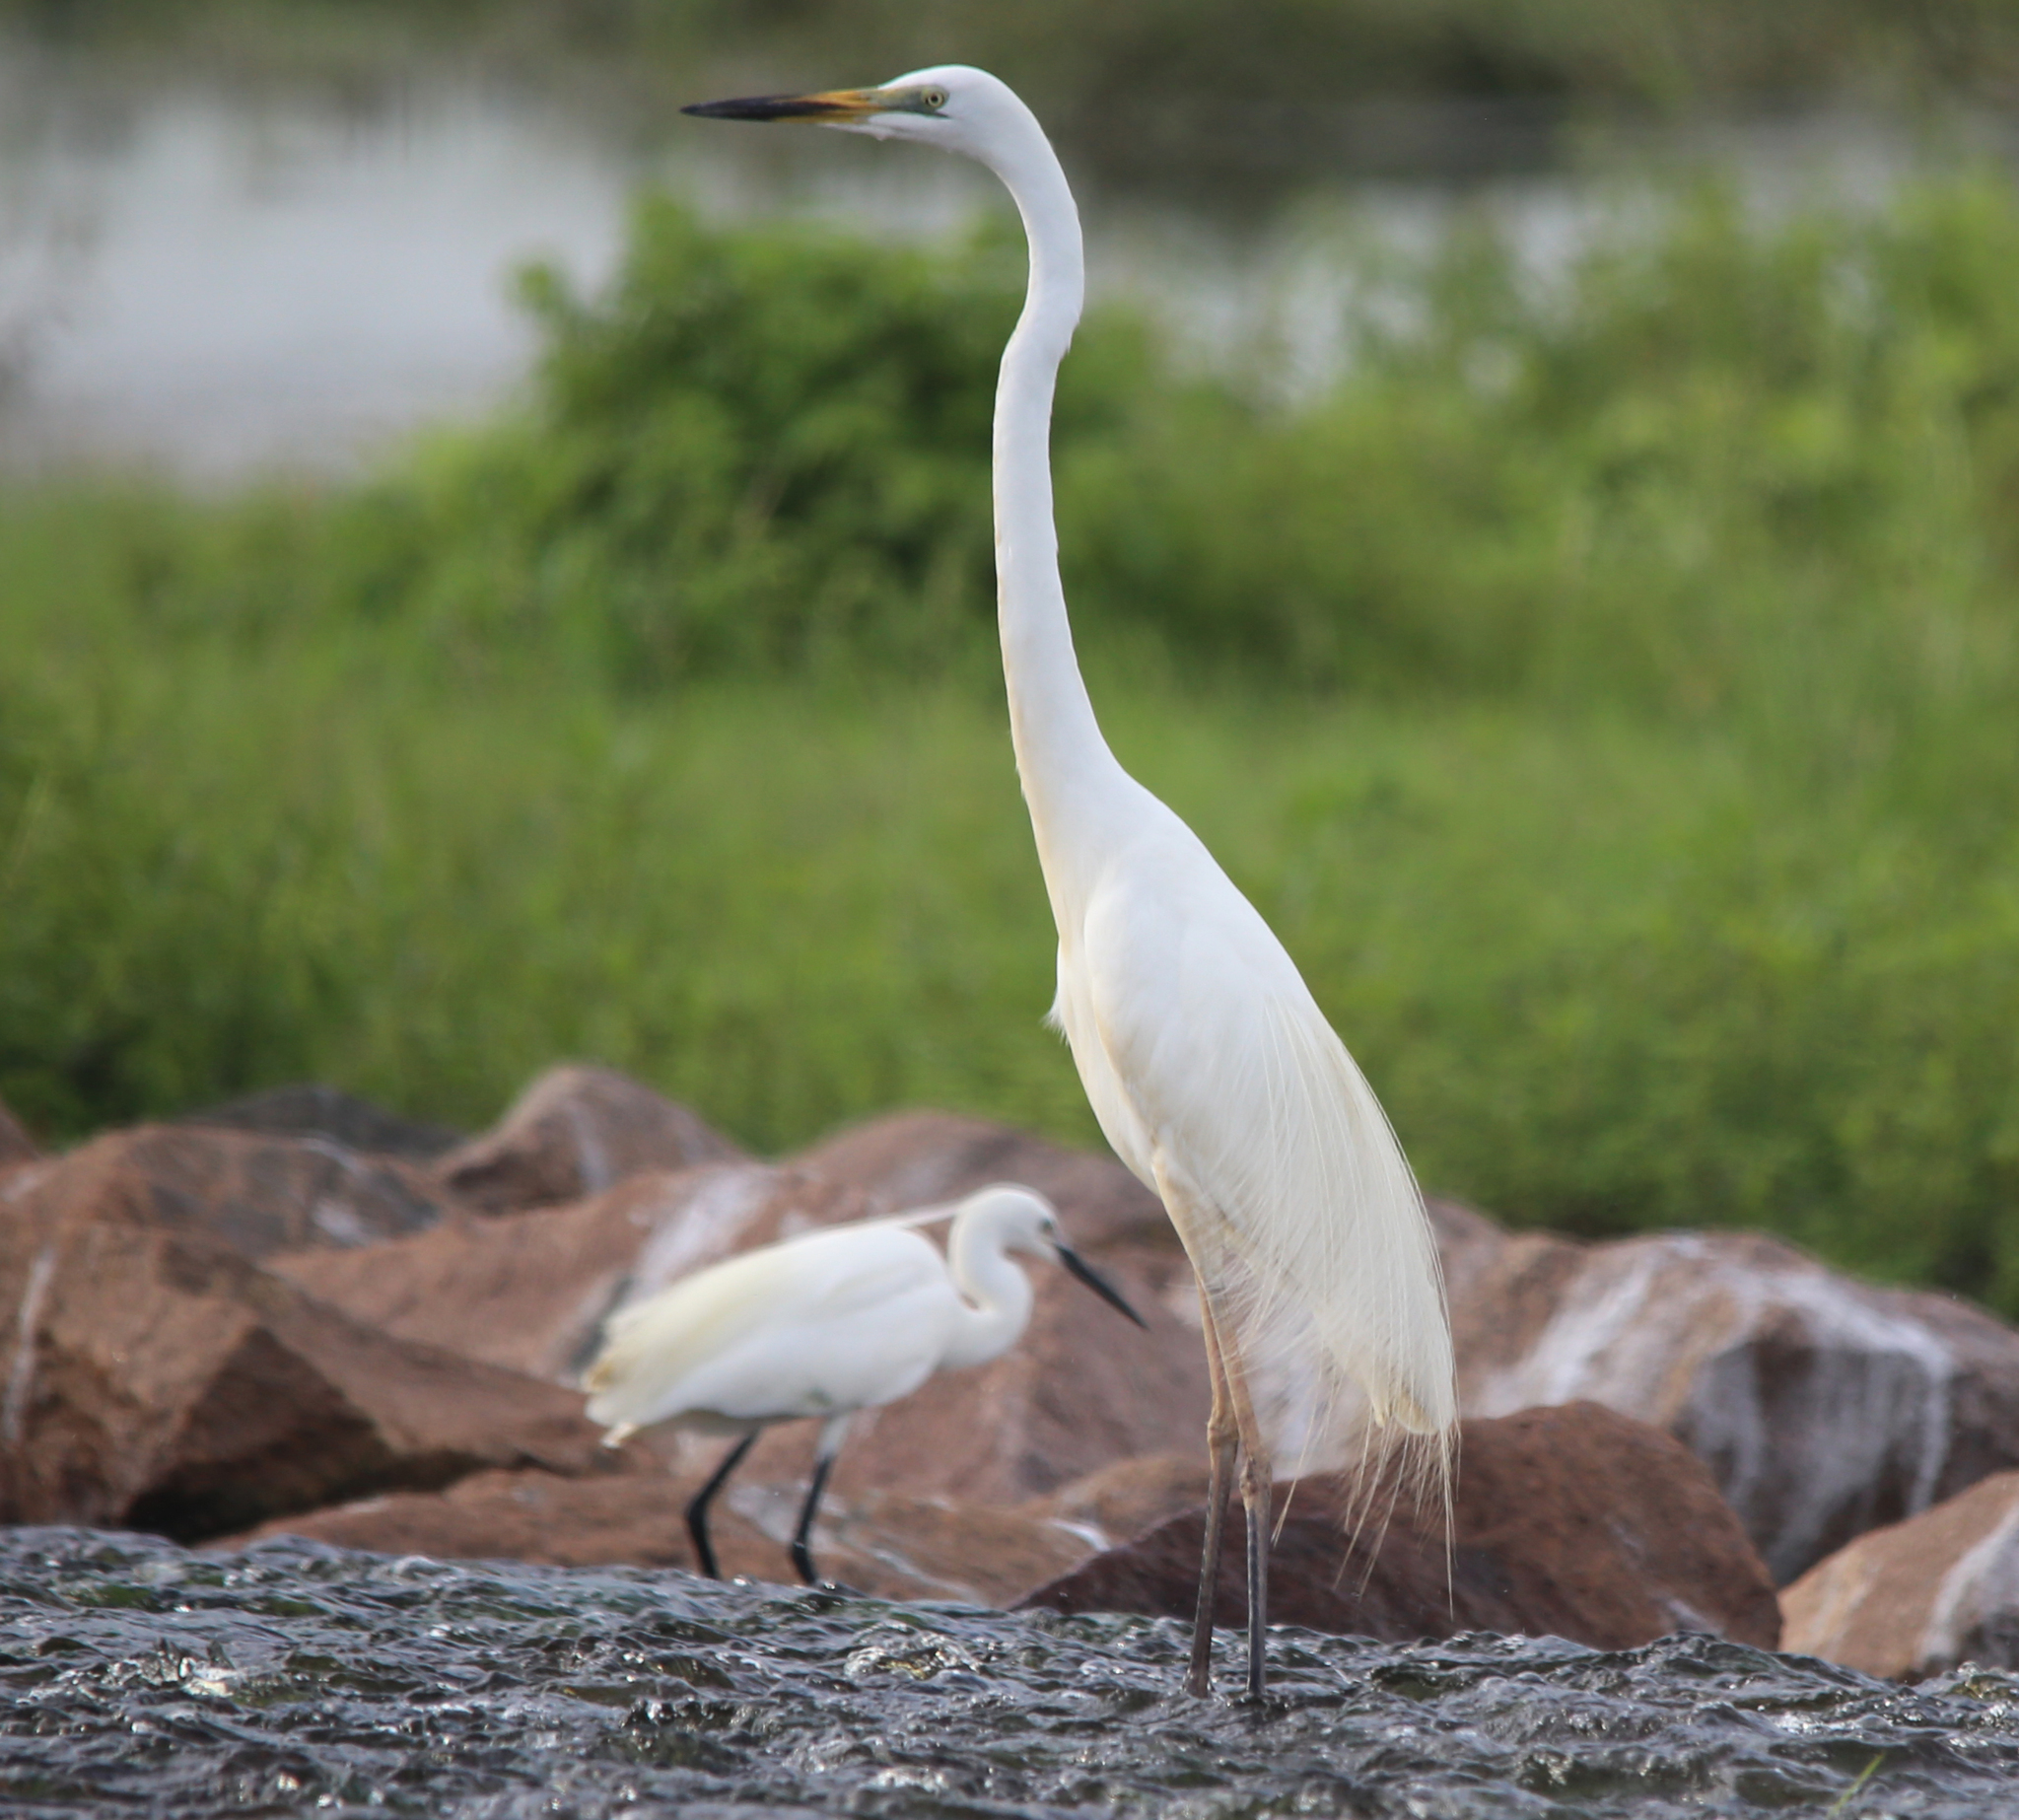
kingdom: Animalia
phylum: Chordata
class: Aves
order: Pelecaniformes
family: Ardeidae
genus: Ardea
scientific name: Ardea alba
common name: Great egret
